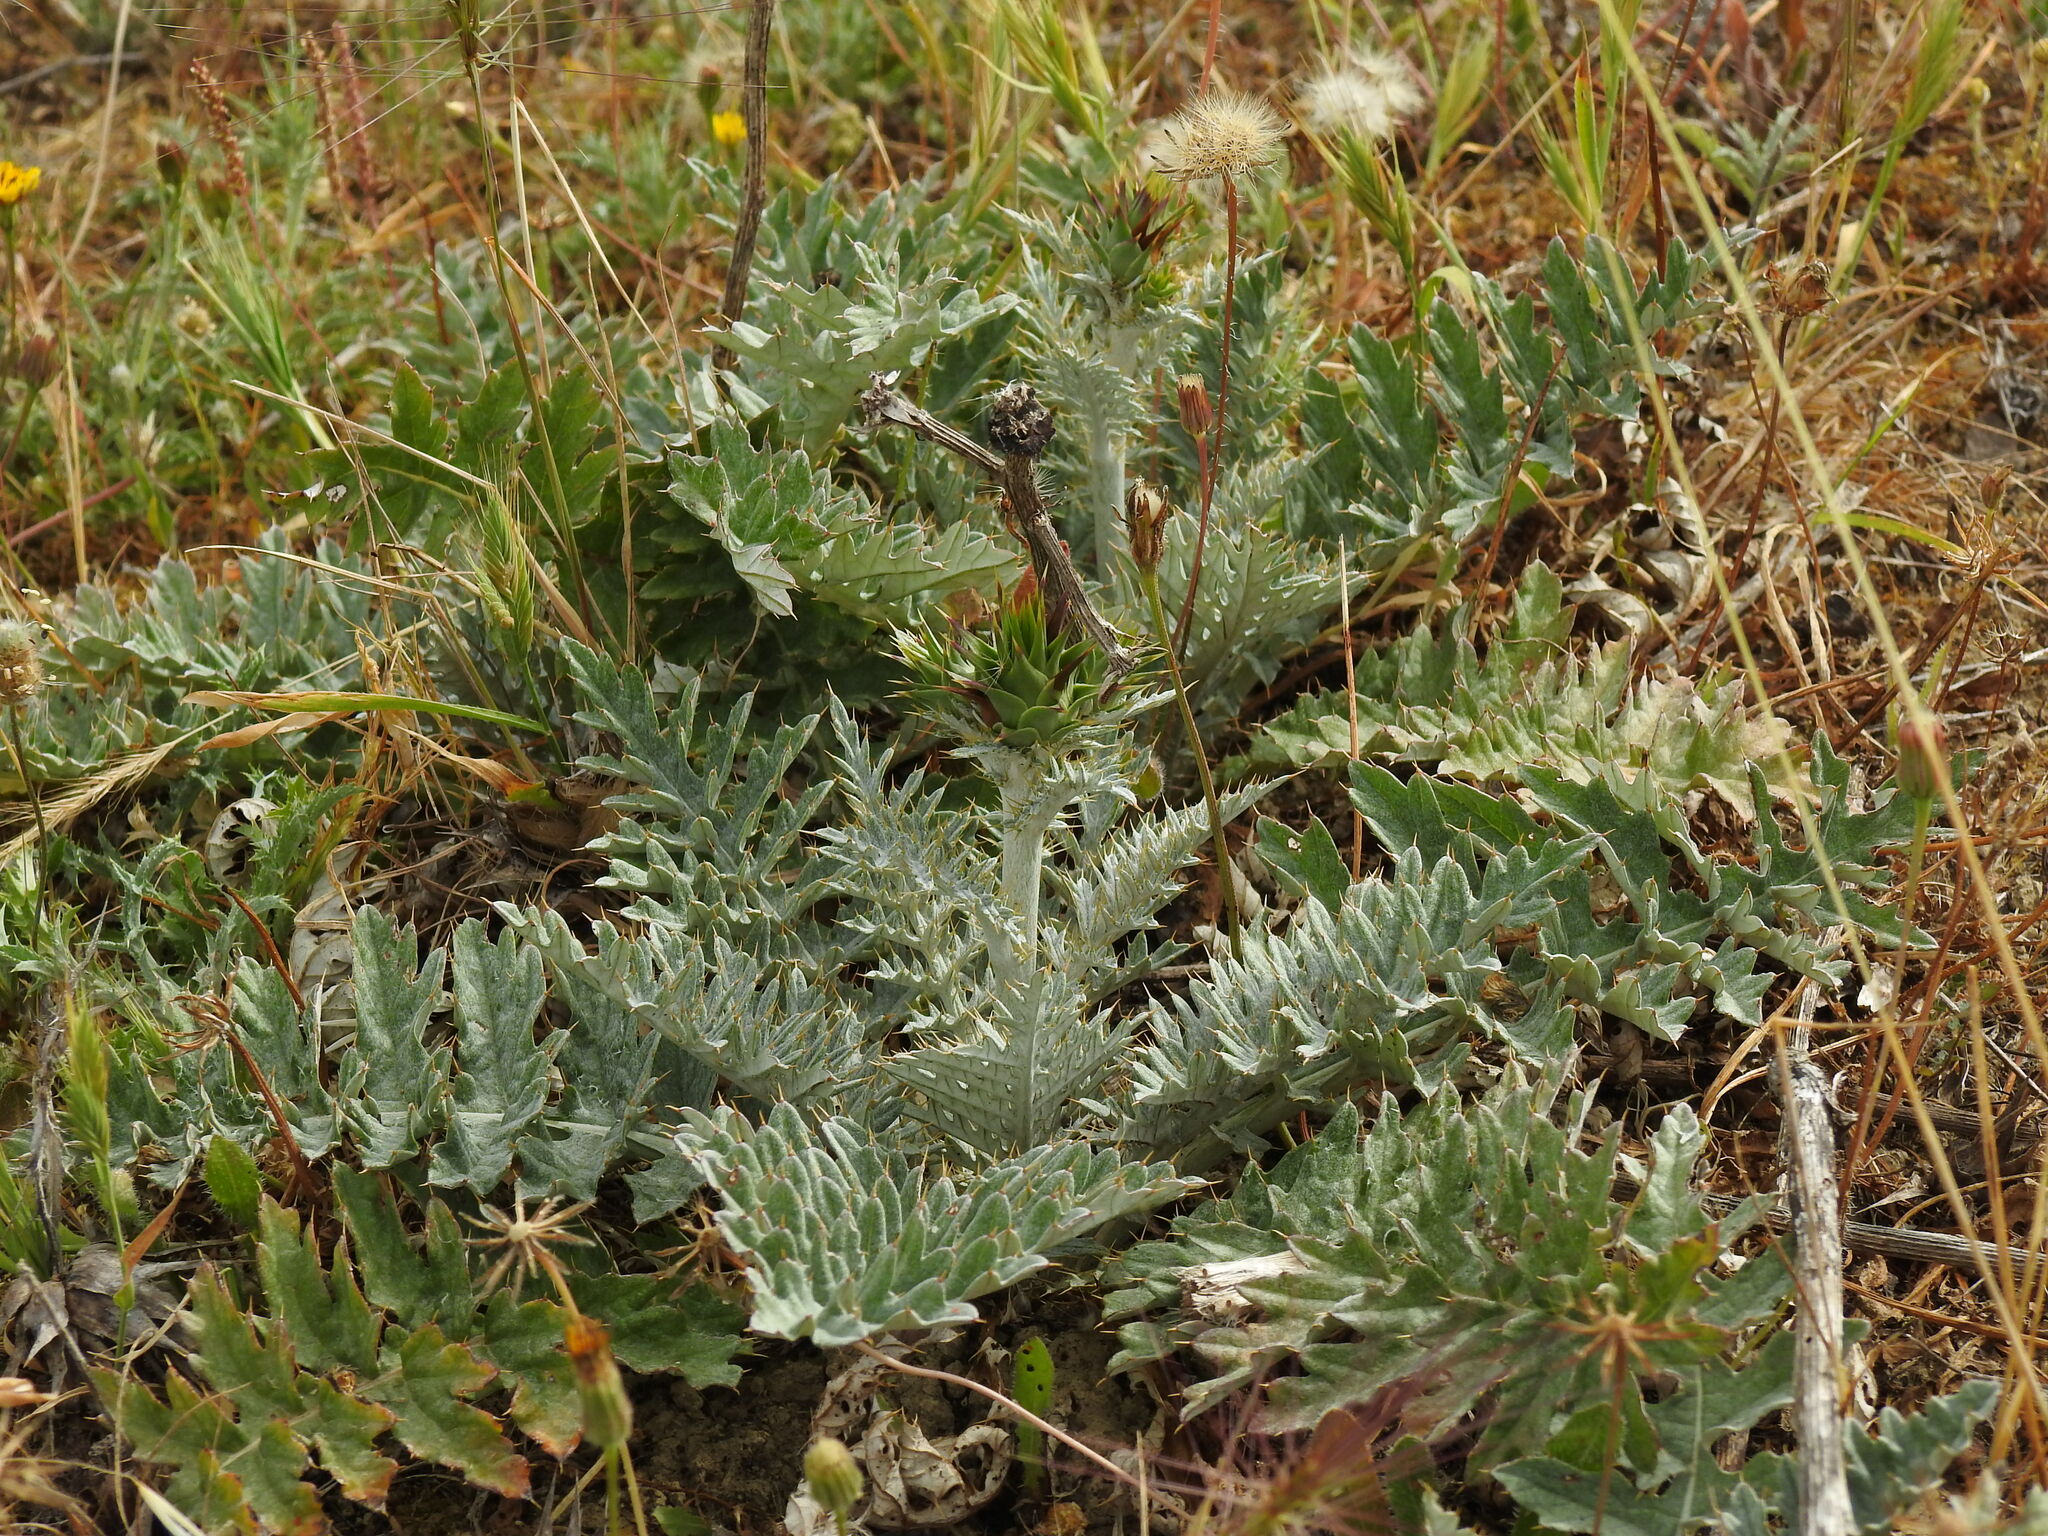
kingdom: Plantae
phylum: Tracheophyta
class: Magnoliopsida
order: Asterales
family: Asteraceae
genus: Cynara
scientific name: Cynara algarbiensis
